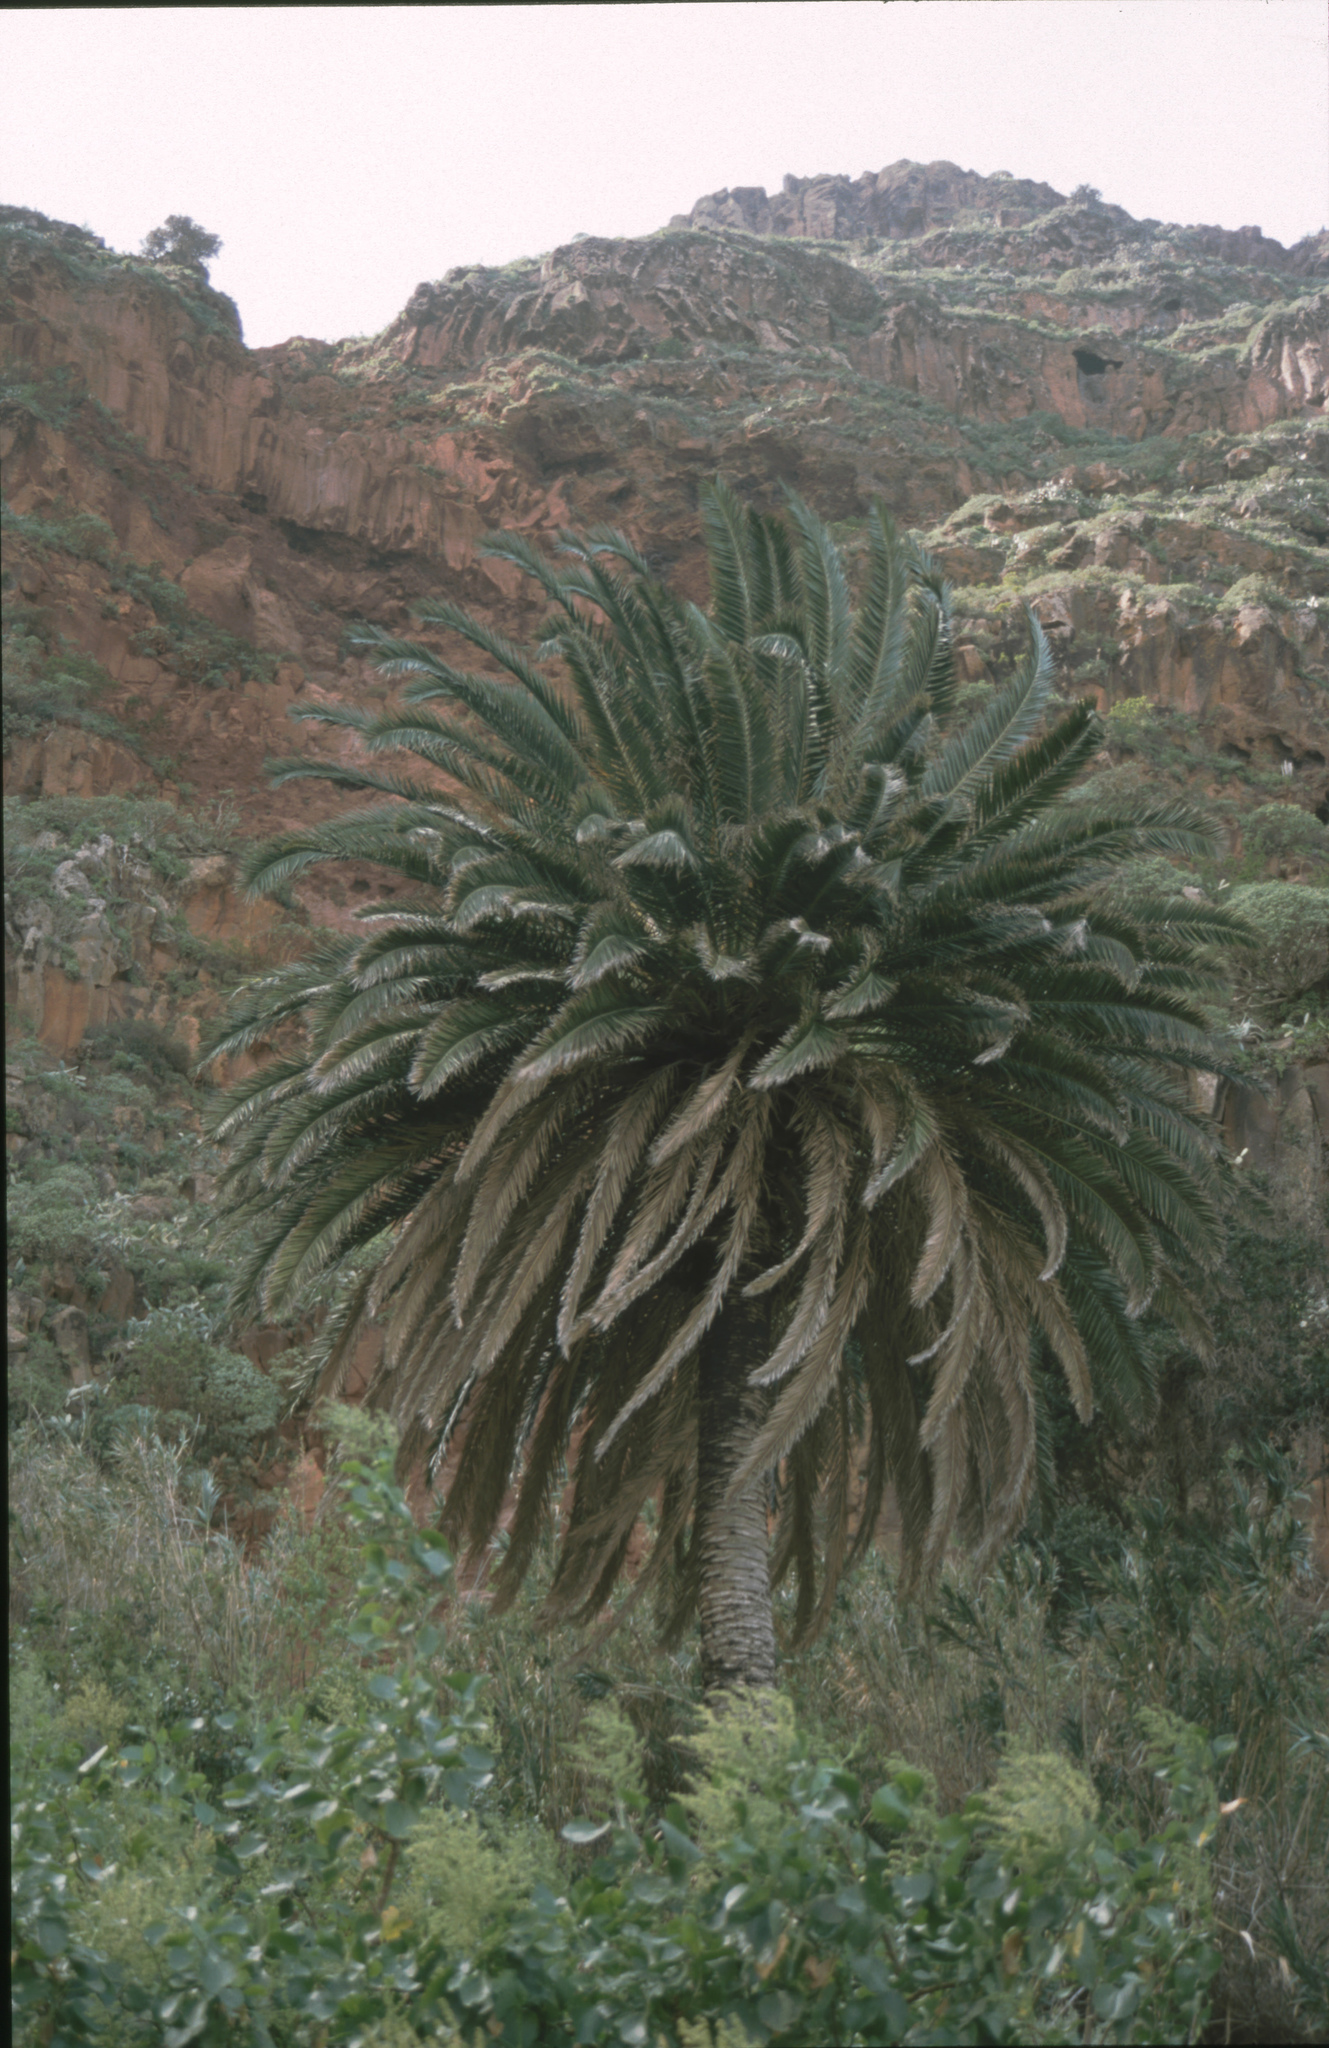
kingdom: Plantae
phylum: Tracheophyta
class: Liliopsida
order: Arecales
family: Arecaceae
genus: Phoenix
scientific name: Phoenix canariensis
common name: Canary island date palm
